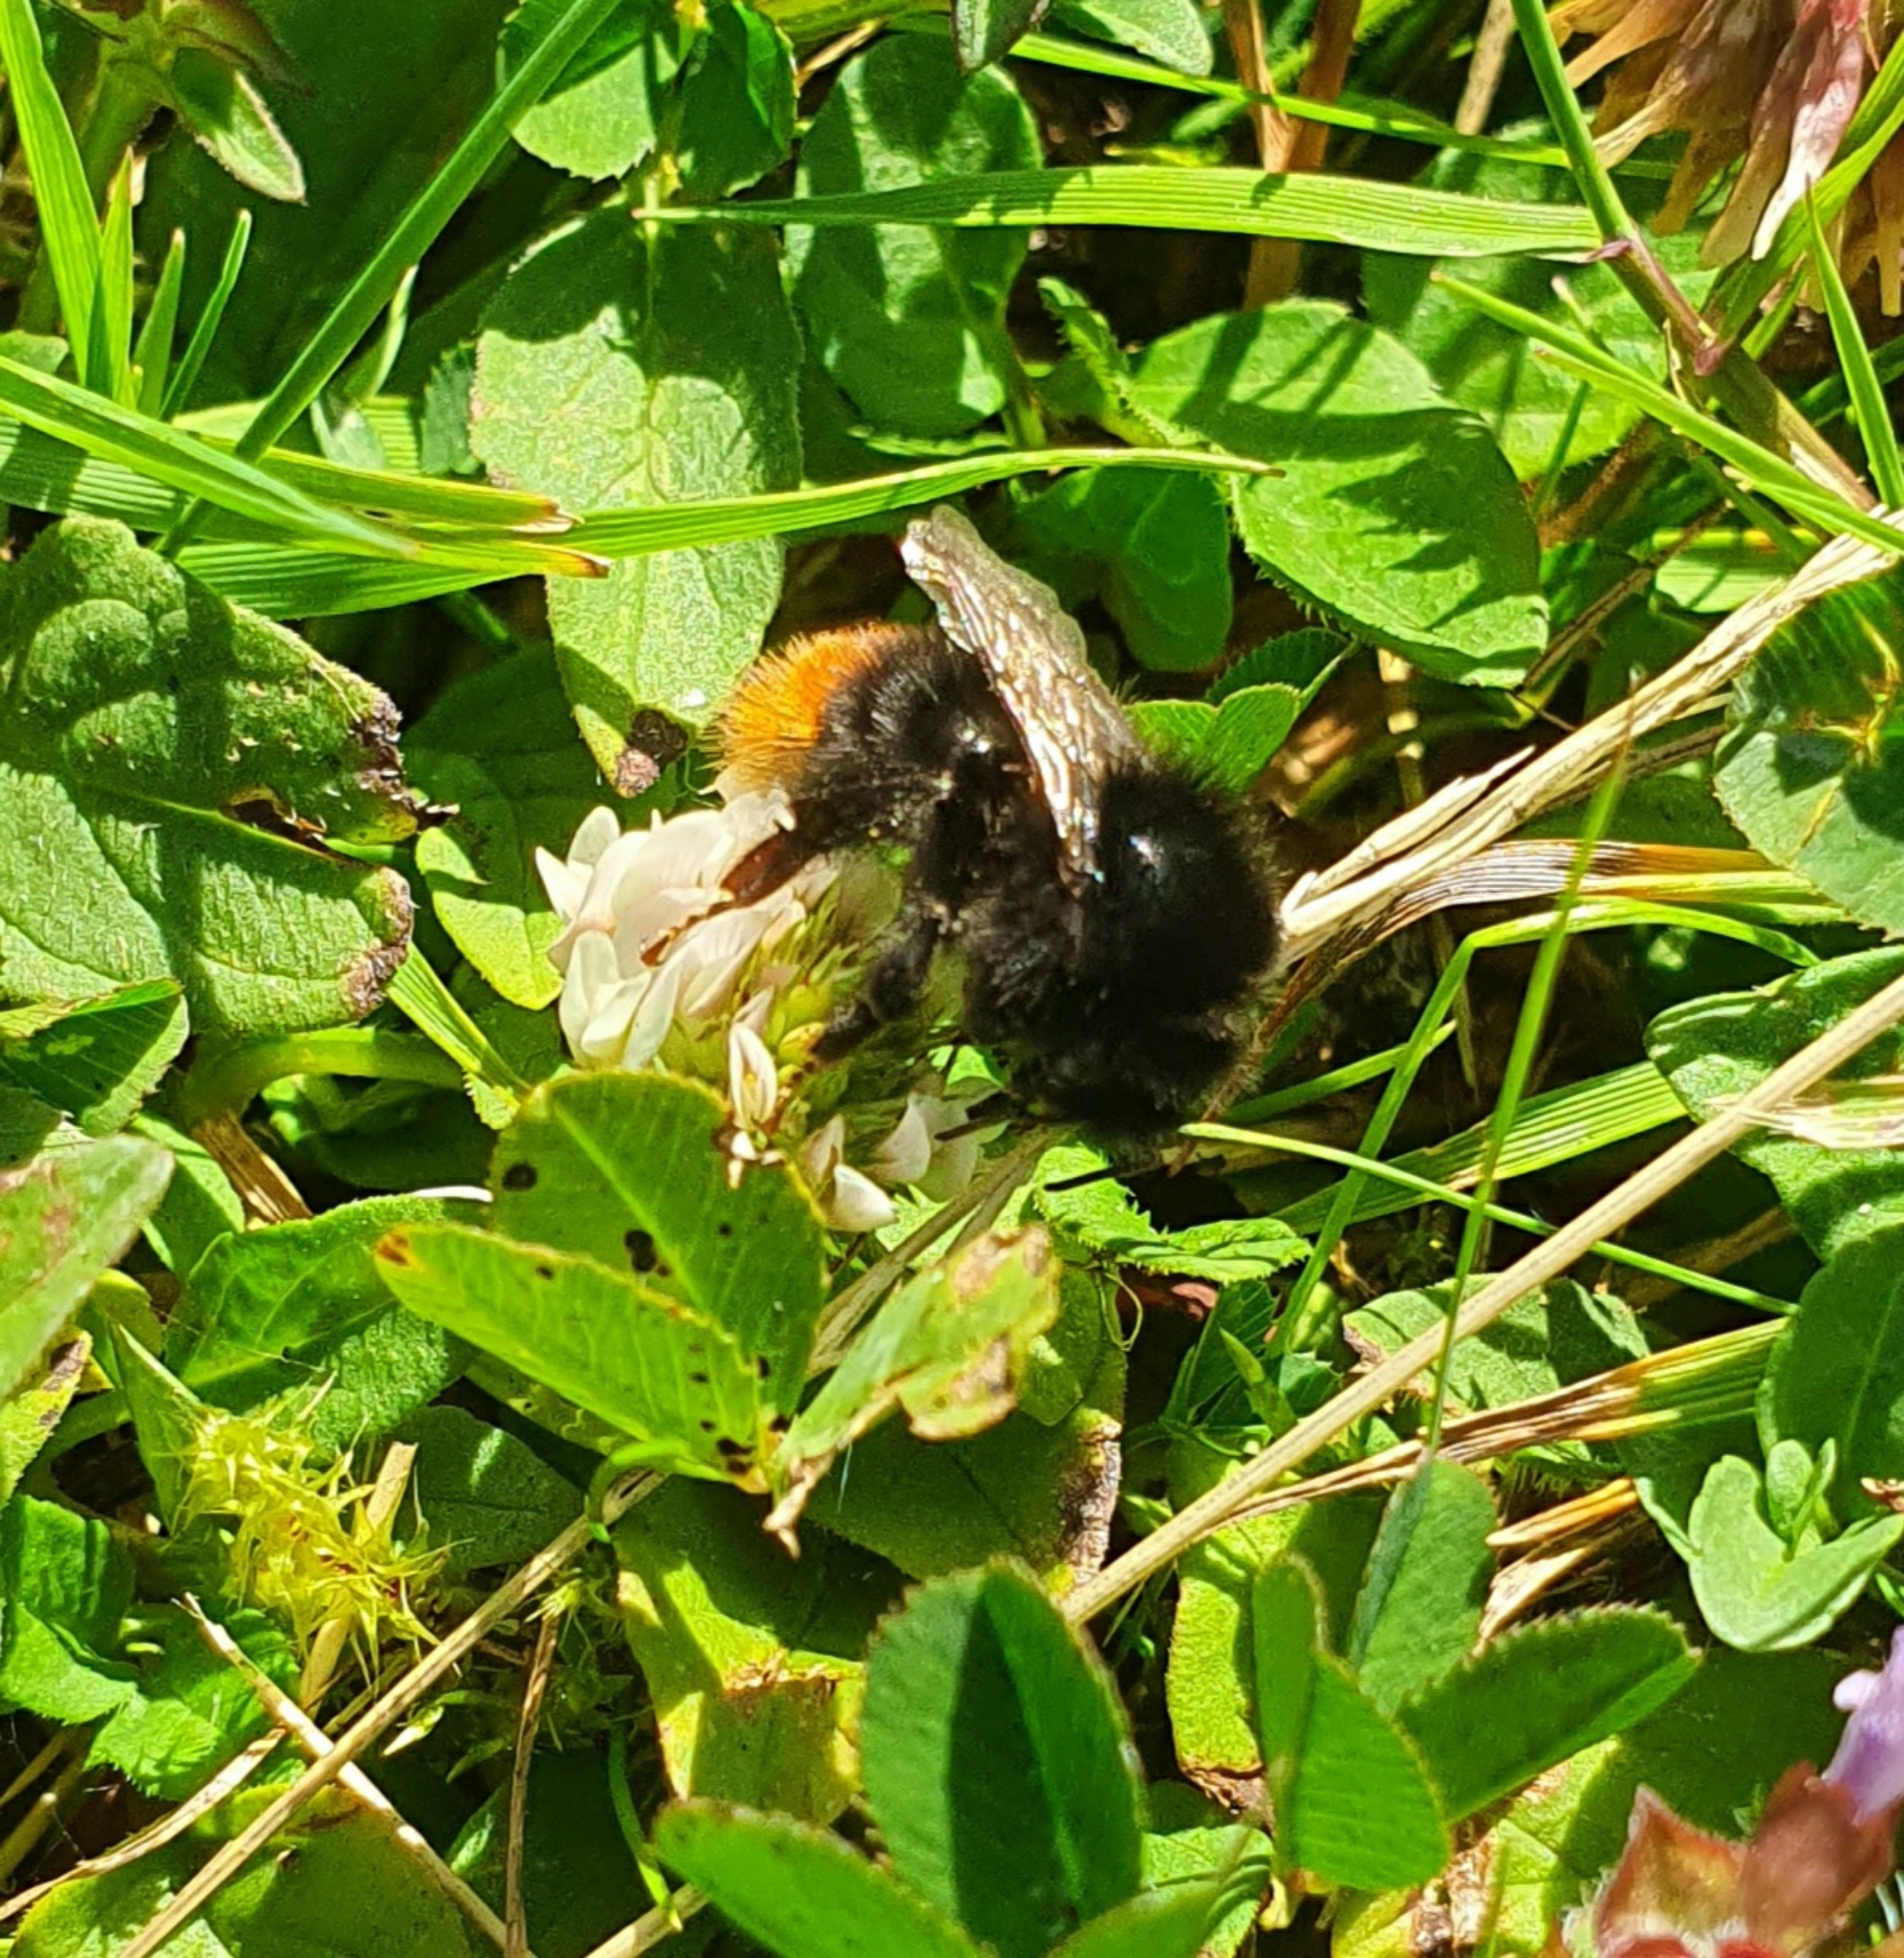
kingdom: Animalia
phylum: Arthropoda
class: Insecta
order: Hymenoptera
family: Apidae
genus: Bombus
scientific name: Bombus lapidarius
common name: Large red-tailed humble-bee
